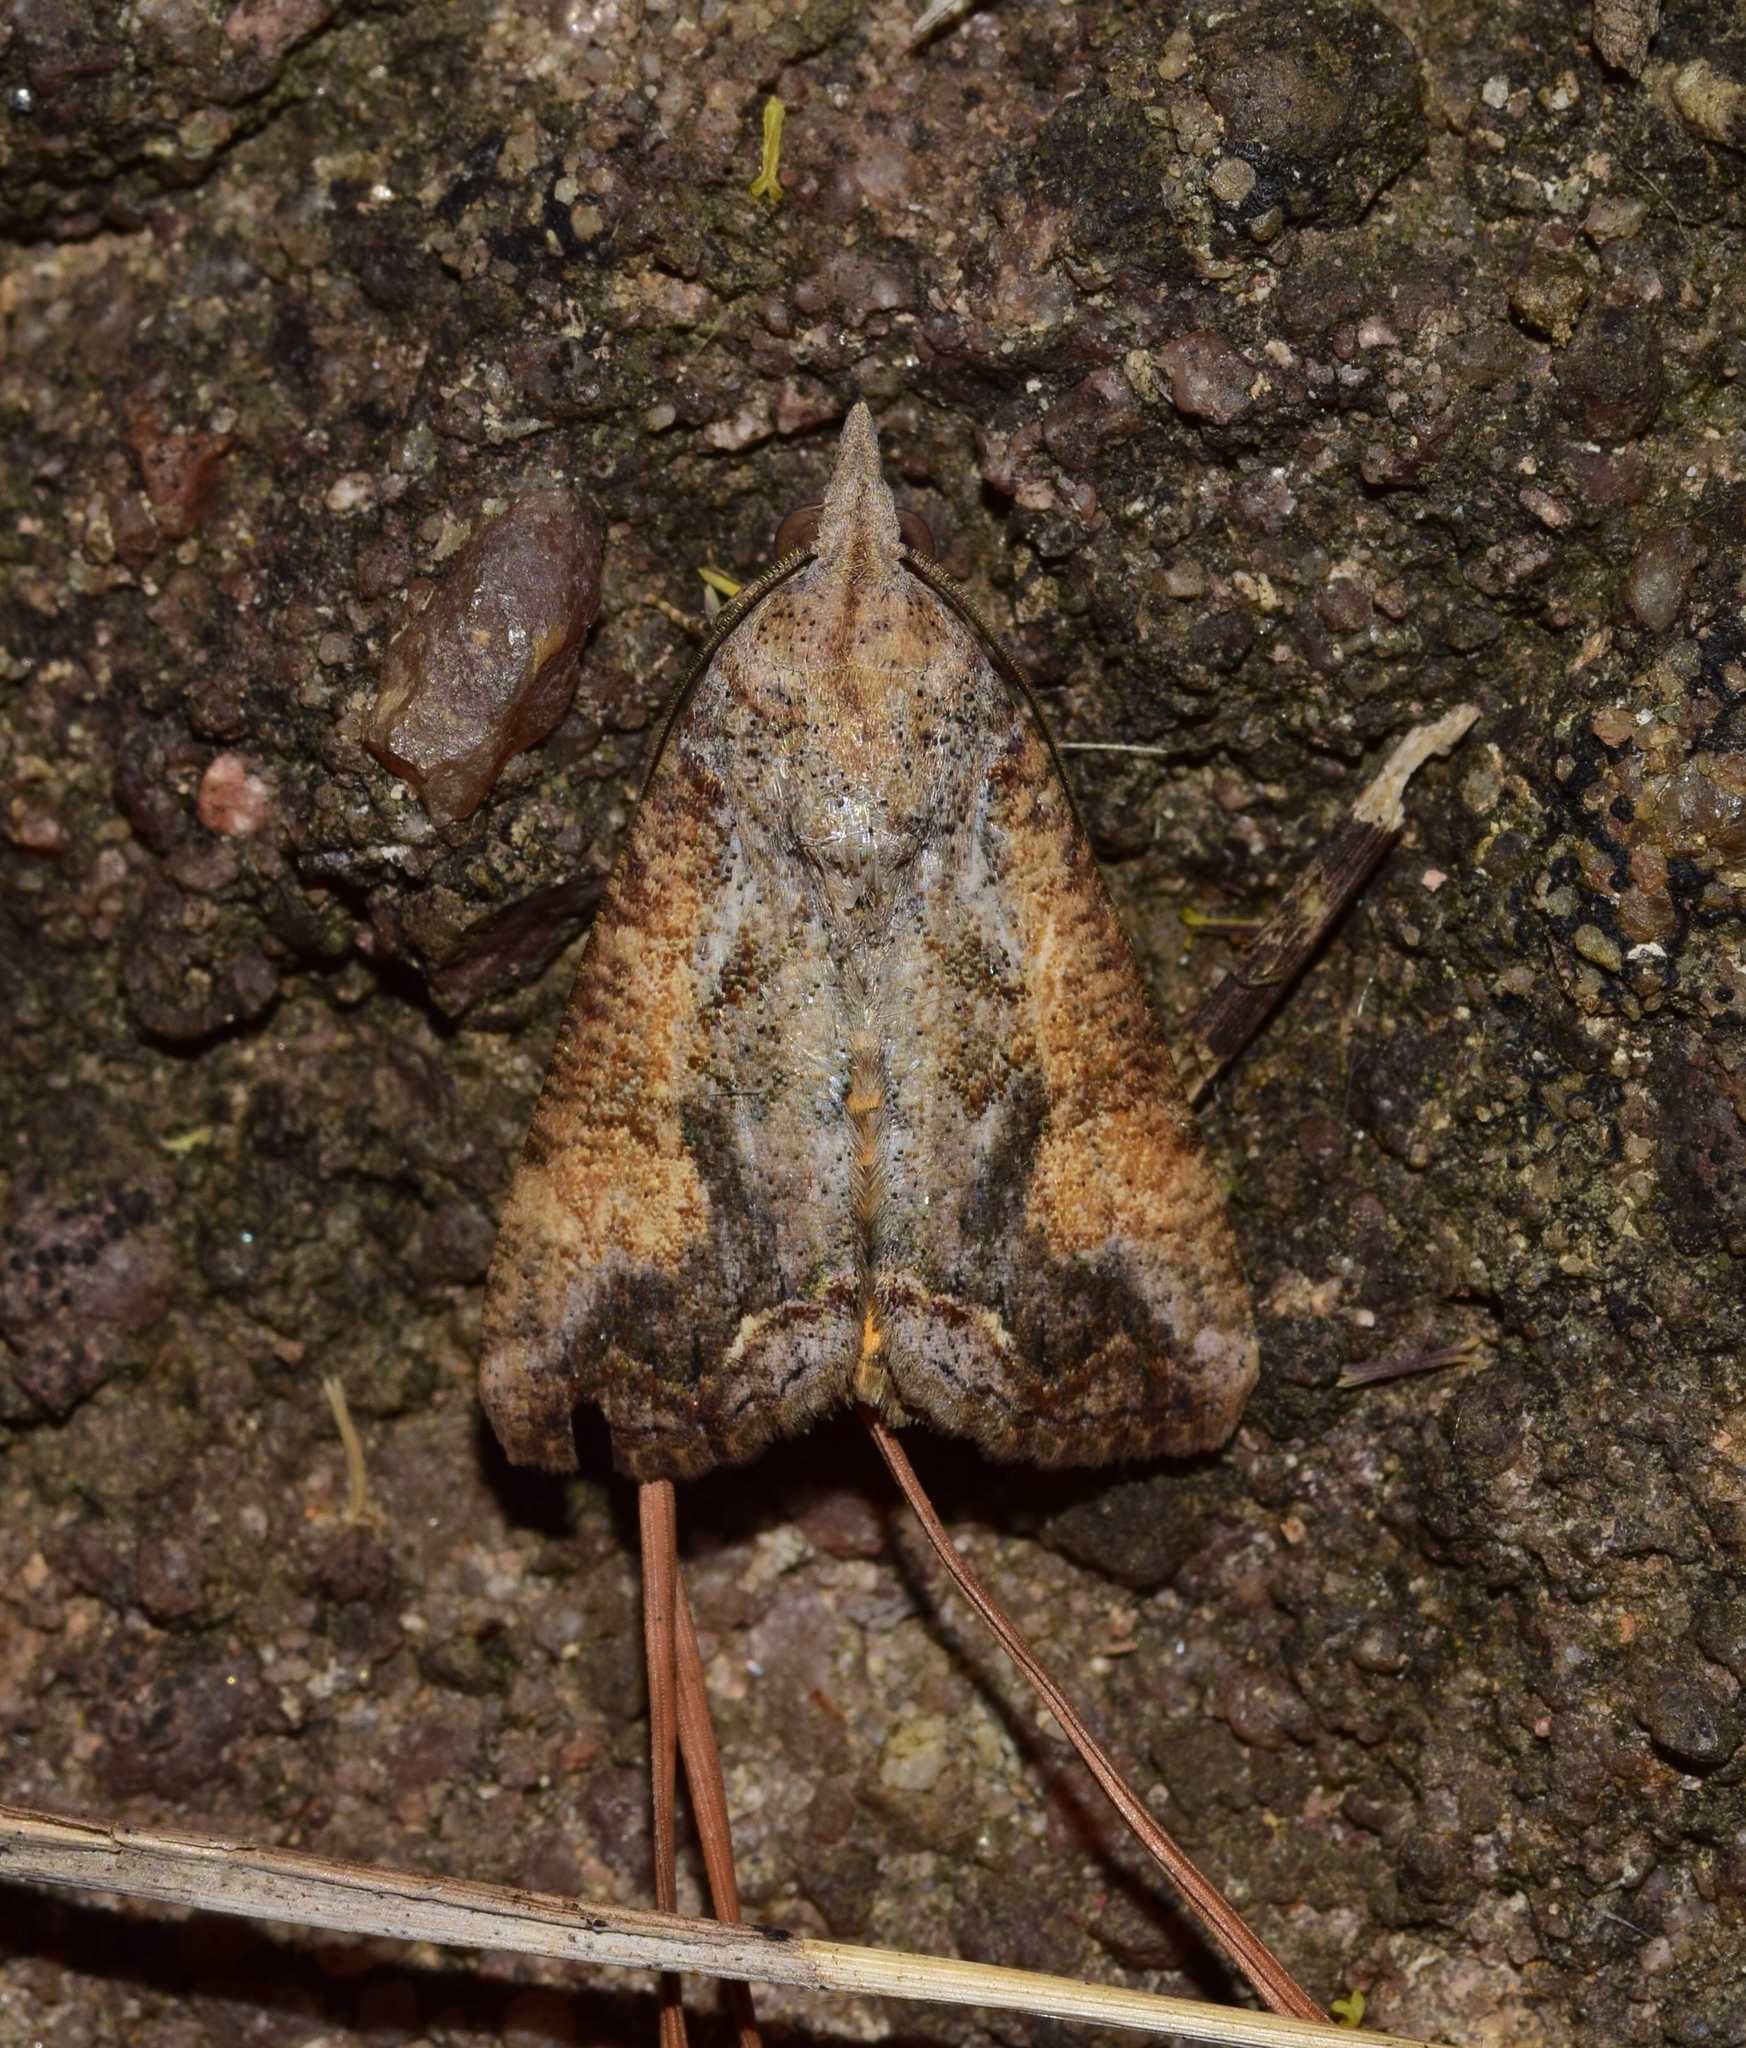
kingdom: Animalia
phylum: Arthropoda
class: Insecta
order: Lepidoptera
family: Erebidae
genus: Hypocala
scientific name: Hypocala rostrata
